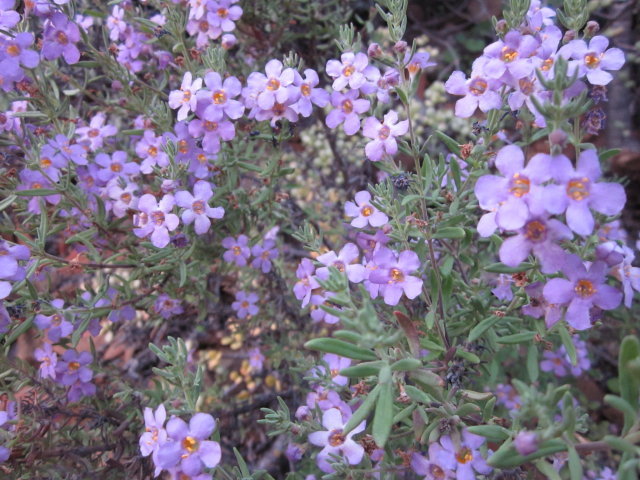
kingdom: Plantae
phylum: Tracheophyta
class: Magnoliopsida
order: Lamiales
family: Scrophulariaceae
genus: Chaenostoma
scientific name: Chaenostoma revolutum
